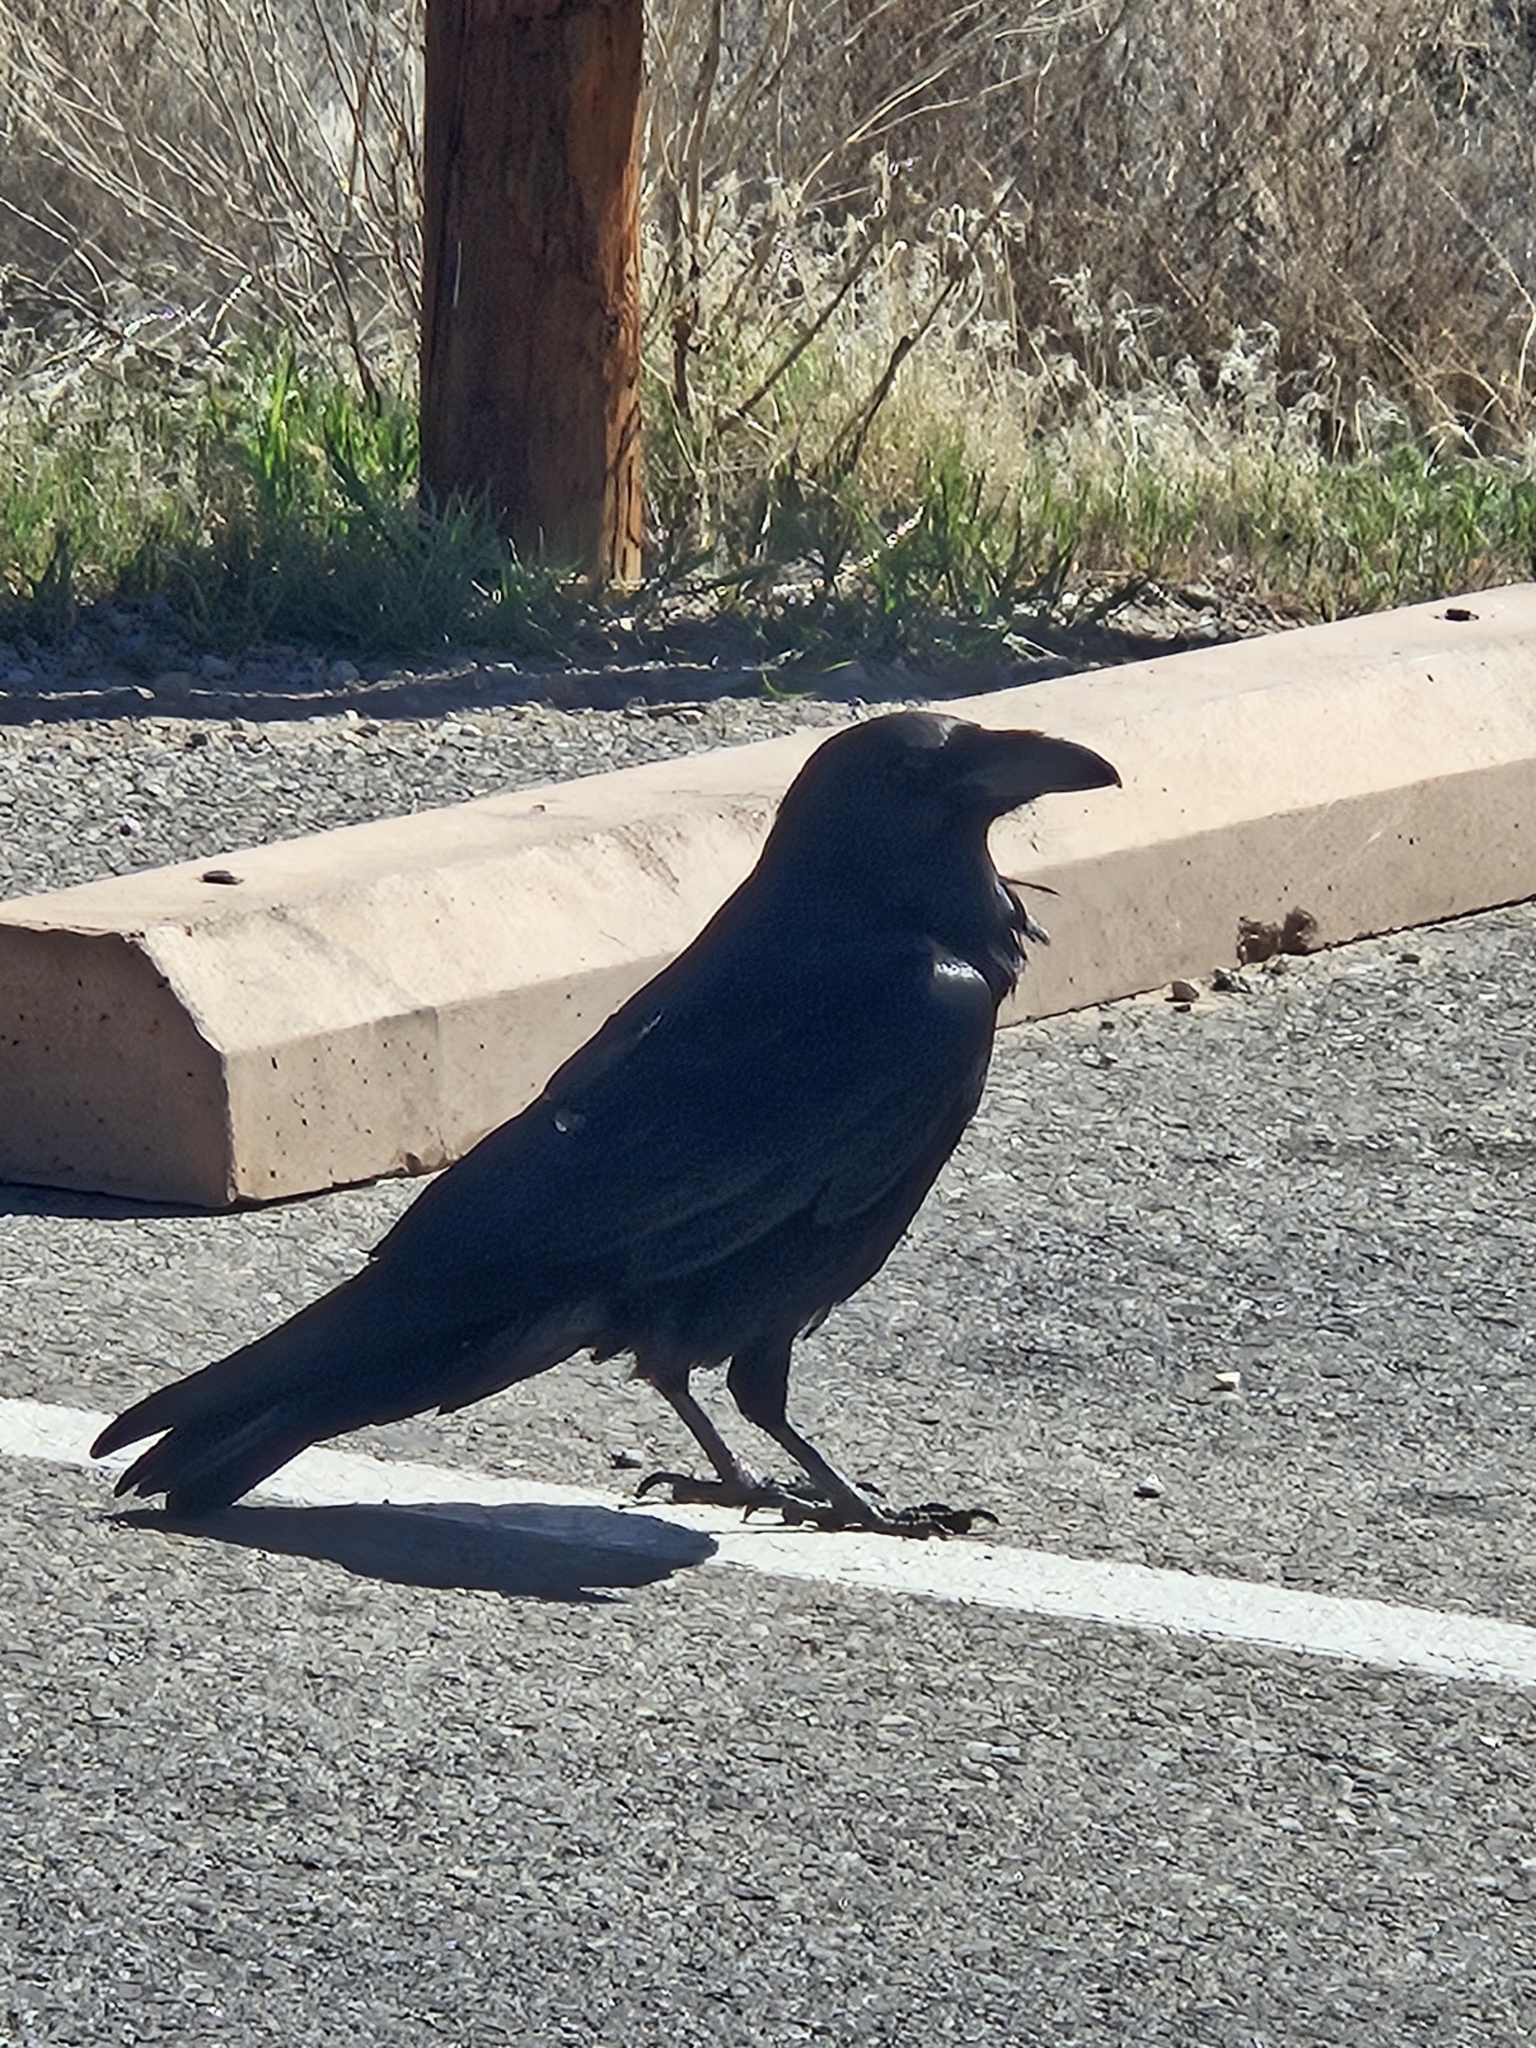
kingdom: Animalia
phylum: Chordata
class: Aves
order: Passeriformes
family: Corvidae
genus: Corvus
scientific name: Corvus corax
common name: Common raven
